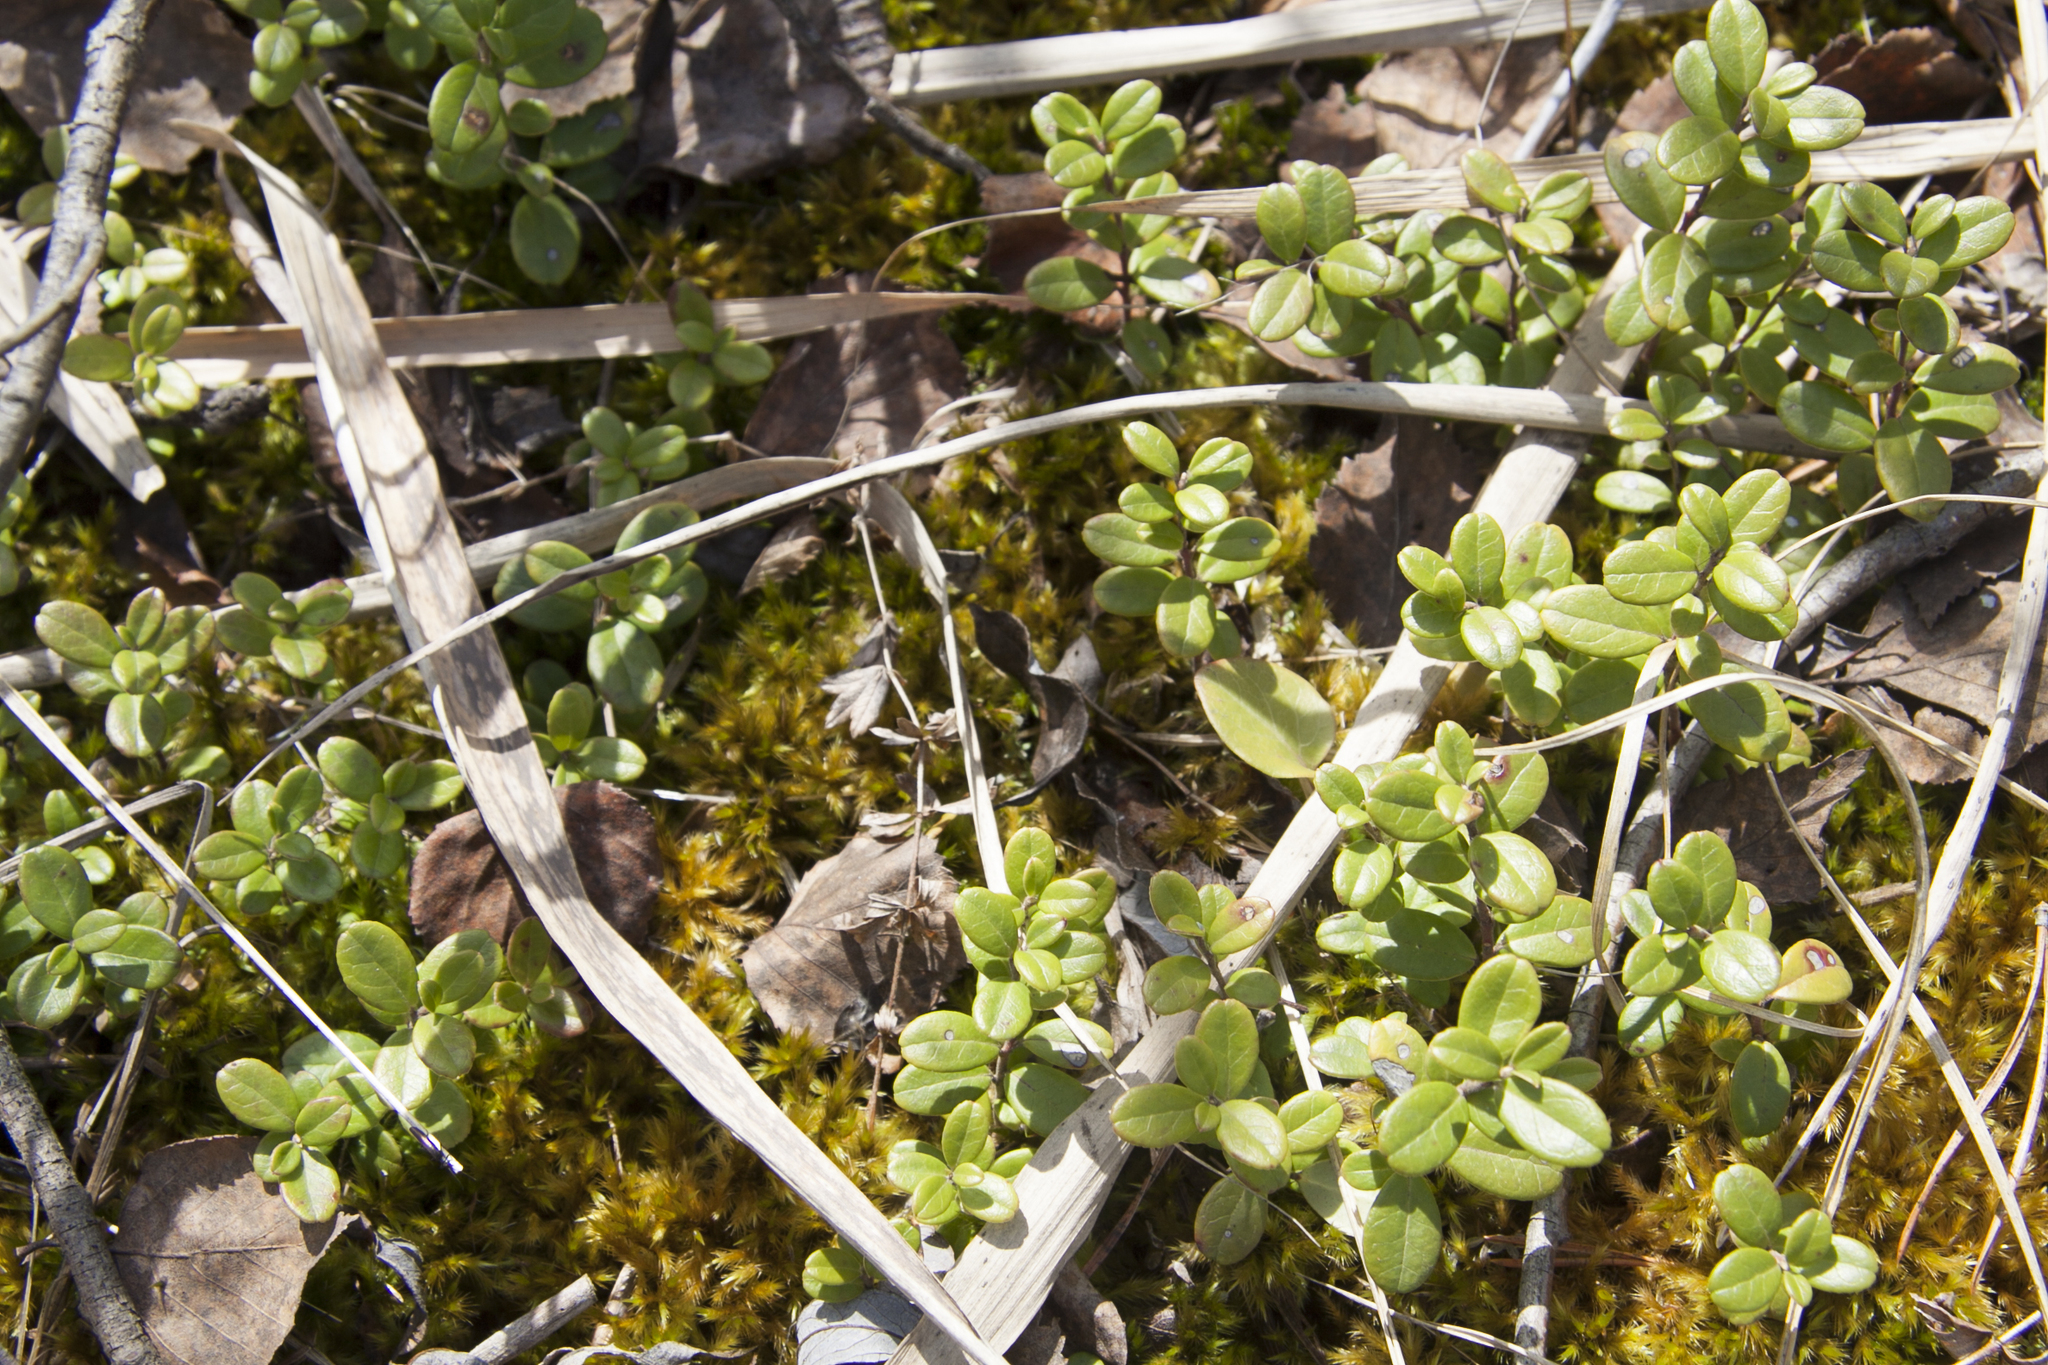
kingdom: Plantae
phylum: Tracheophyta
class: Magnoliopsida
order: Ericales
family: Ericaceae
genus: Vaccinium
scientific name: Vaccinium vitis-idaea
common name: Cowberry
